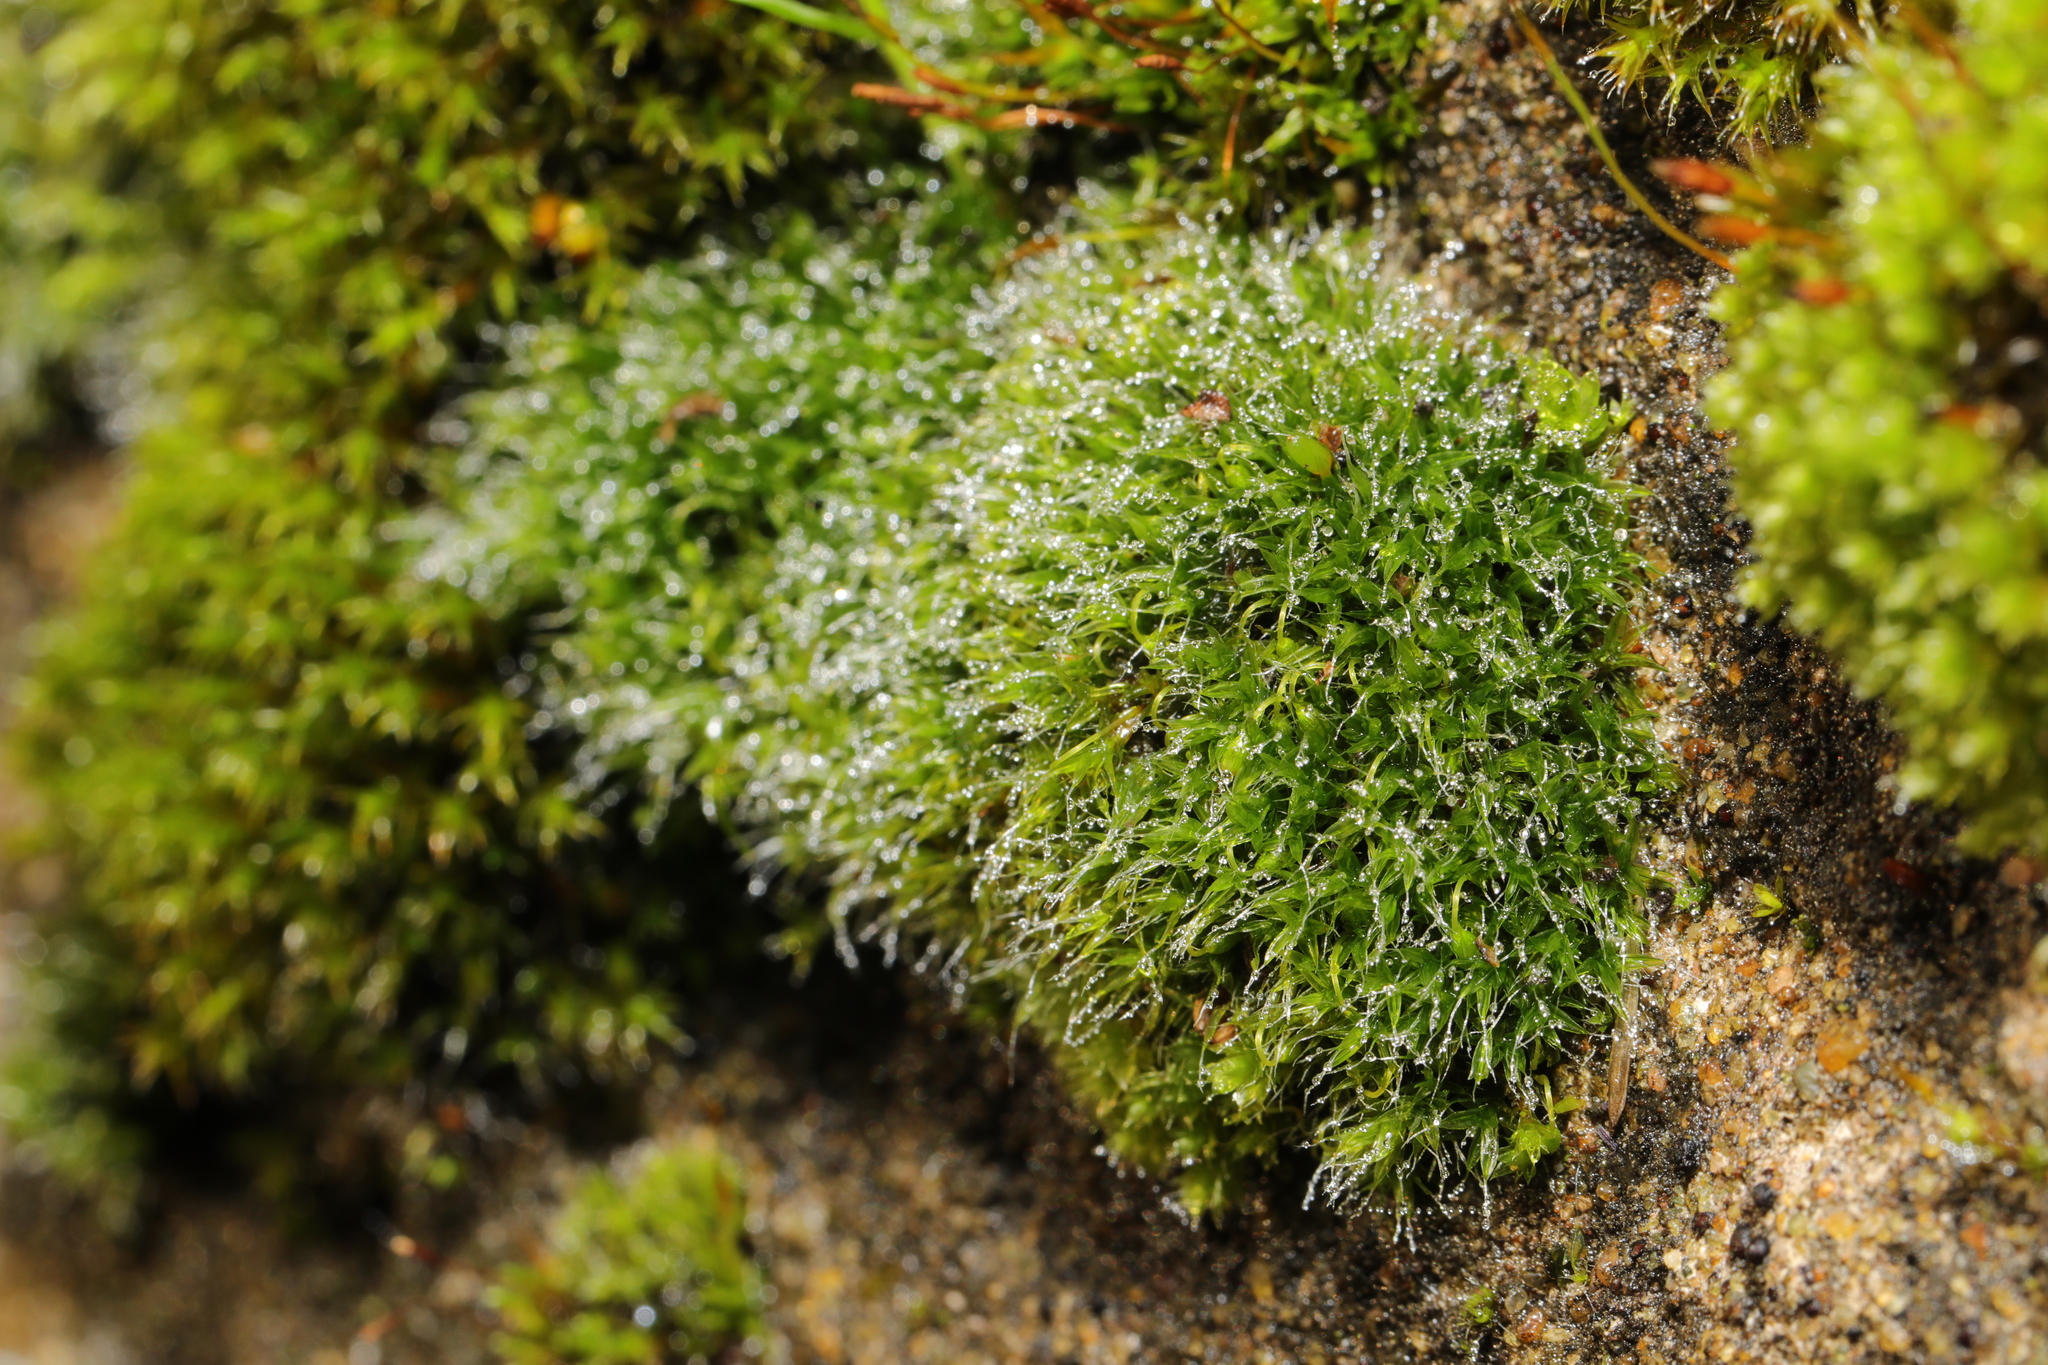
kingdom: Plantae
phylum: Bryophyta
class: Bryopsida
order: Grimmiales
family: Grimmiaceae
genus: Grimmia
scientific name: Grimmia pulvinata
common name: Grey-cushioned grimmia
